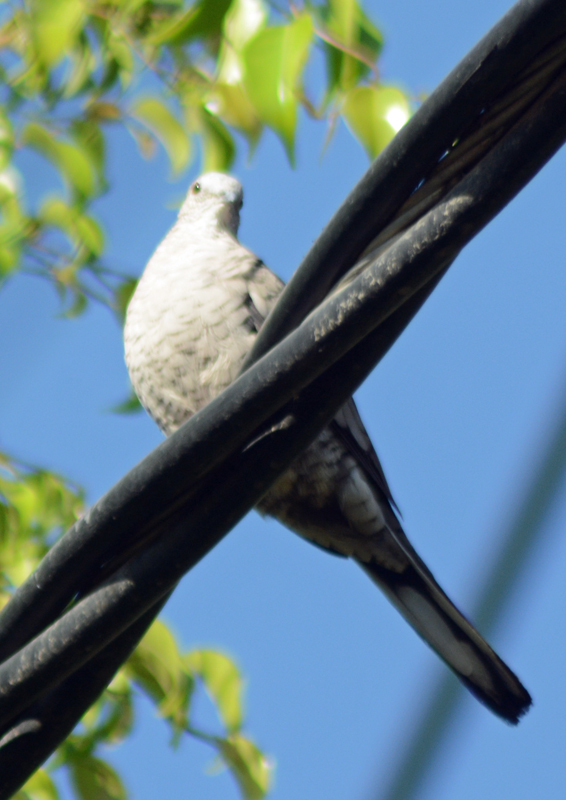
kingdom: Animalia
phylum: Chordata
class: Aves
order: Columbiformes
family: Columbidae
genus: Columbina
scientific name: Columbina inca
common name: Inca dove
